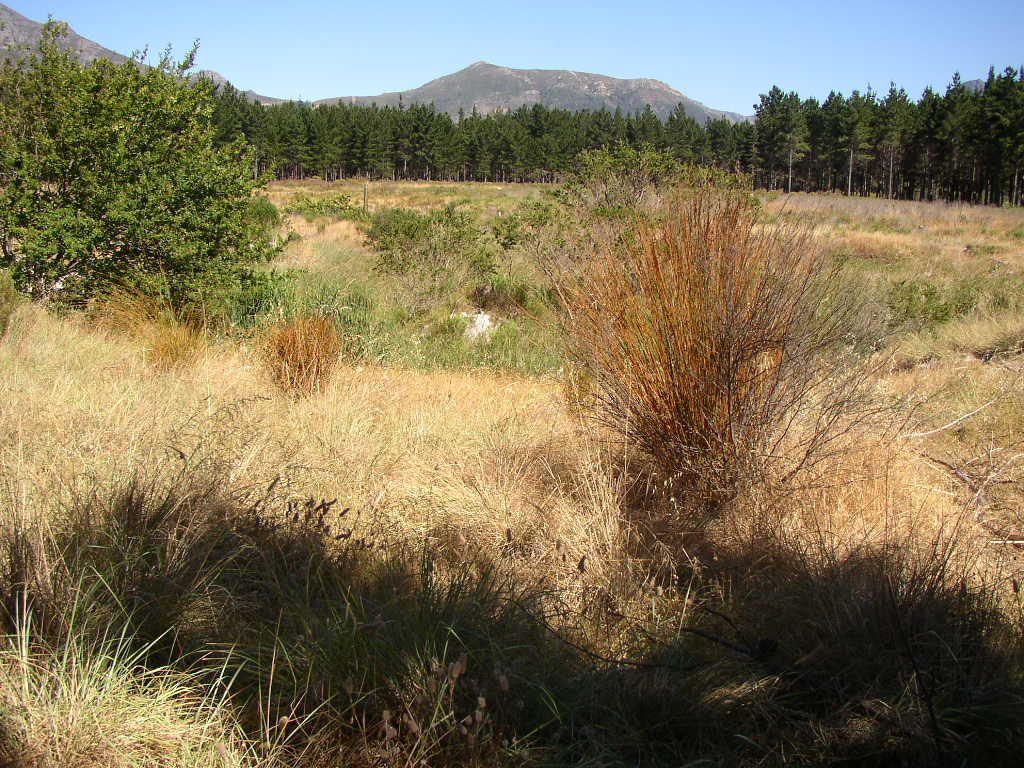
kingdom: Plantae
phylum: Tracheophyta
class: Liliopsida
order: Poales
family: Restionaceae
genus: Thamnochortus
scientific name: Thamnochortus insignis
